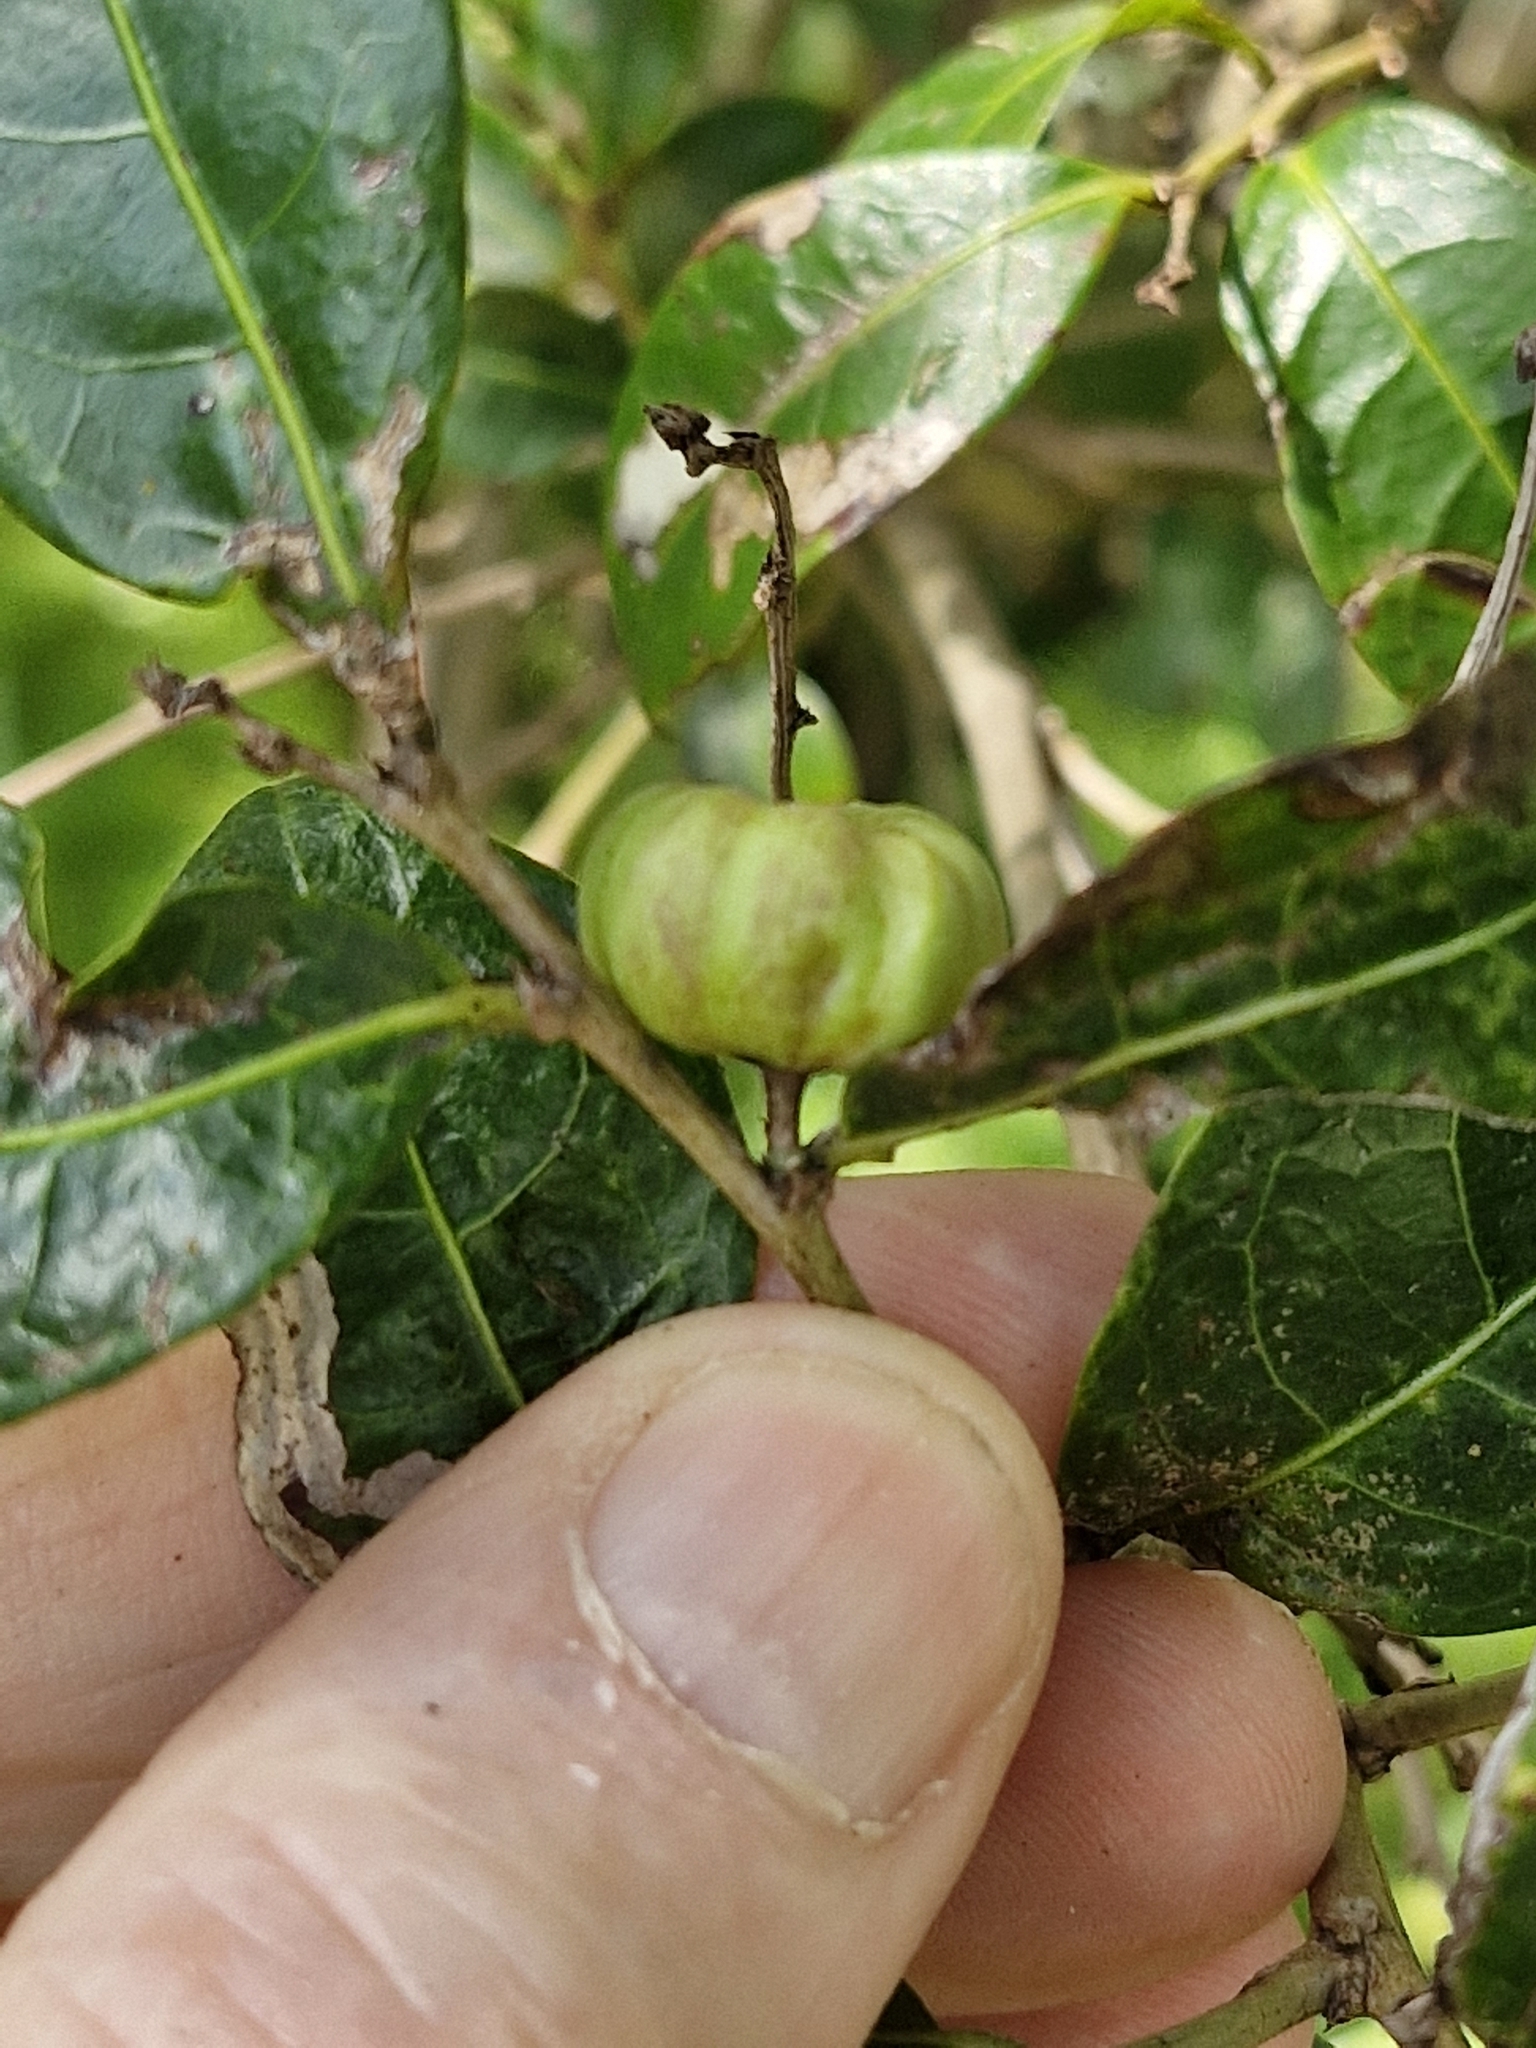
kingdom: Plantae
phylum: Tracheophyta
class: Magnoliopsida
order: Malpighiales
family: Phyllanthaceae
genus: Glochidion
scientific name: Glochidion ferdinandi
